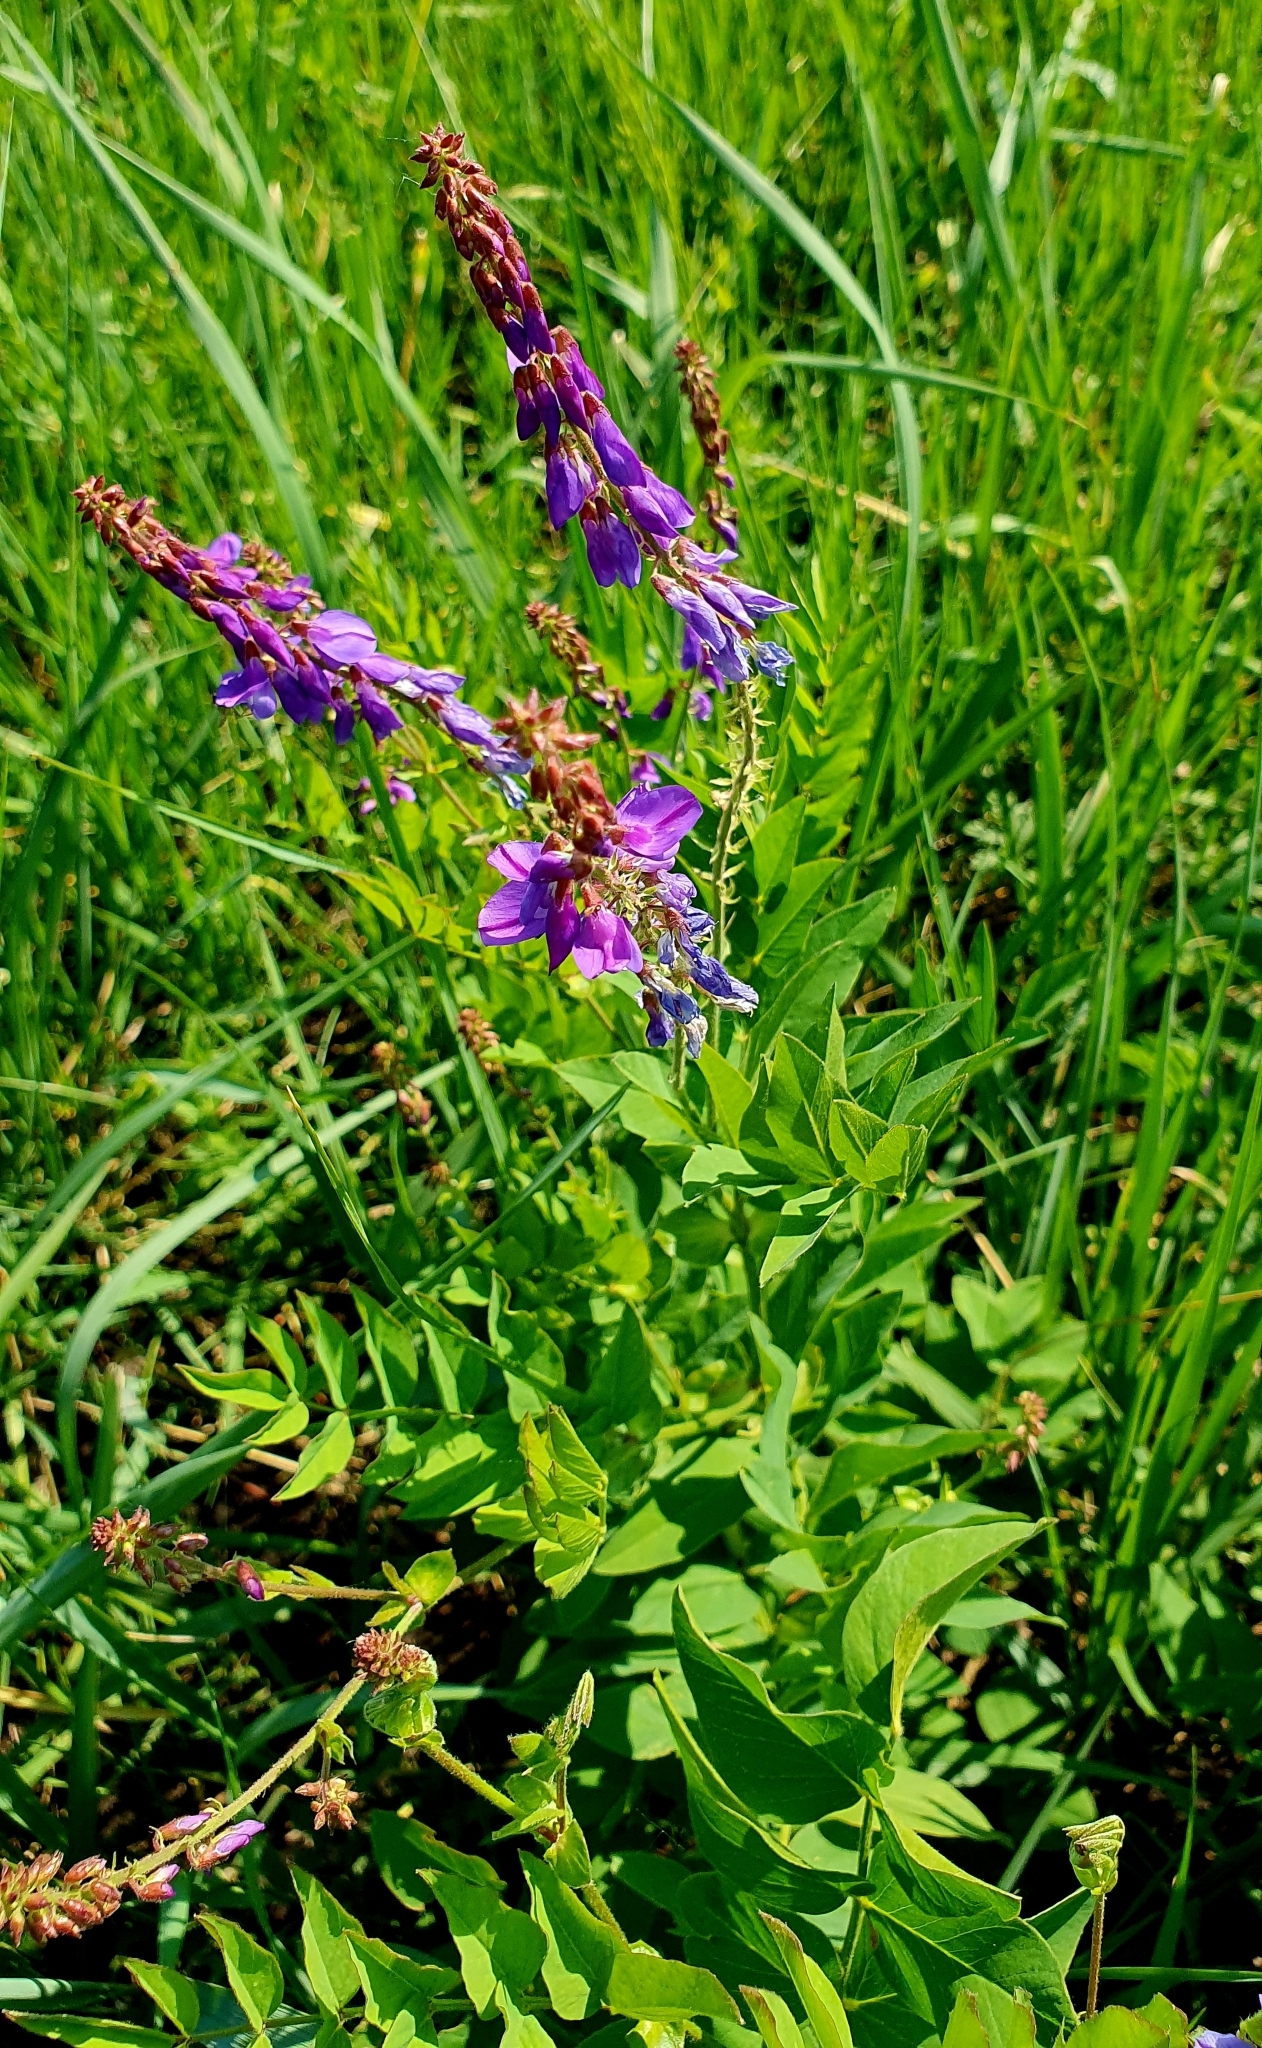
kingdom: Plantae
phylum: Tracheophyta
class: Magnoliopsida
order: Fabales
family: Fabaceae
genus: Galega
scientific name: Galega orientalis
